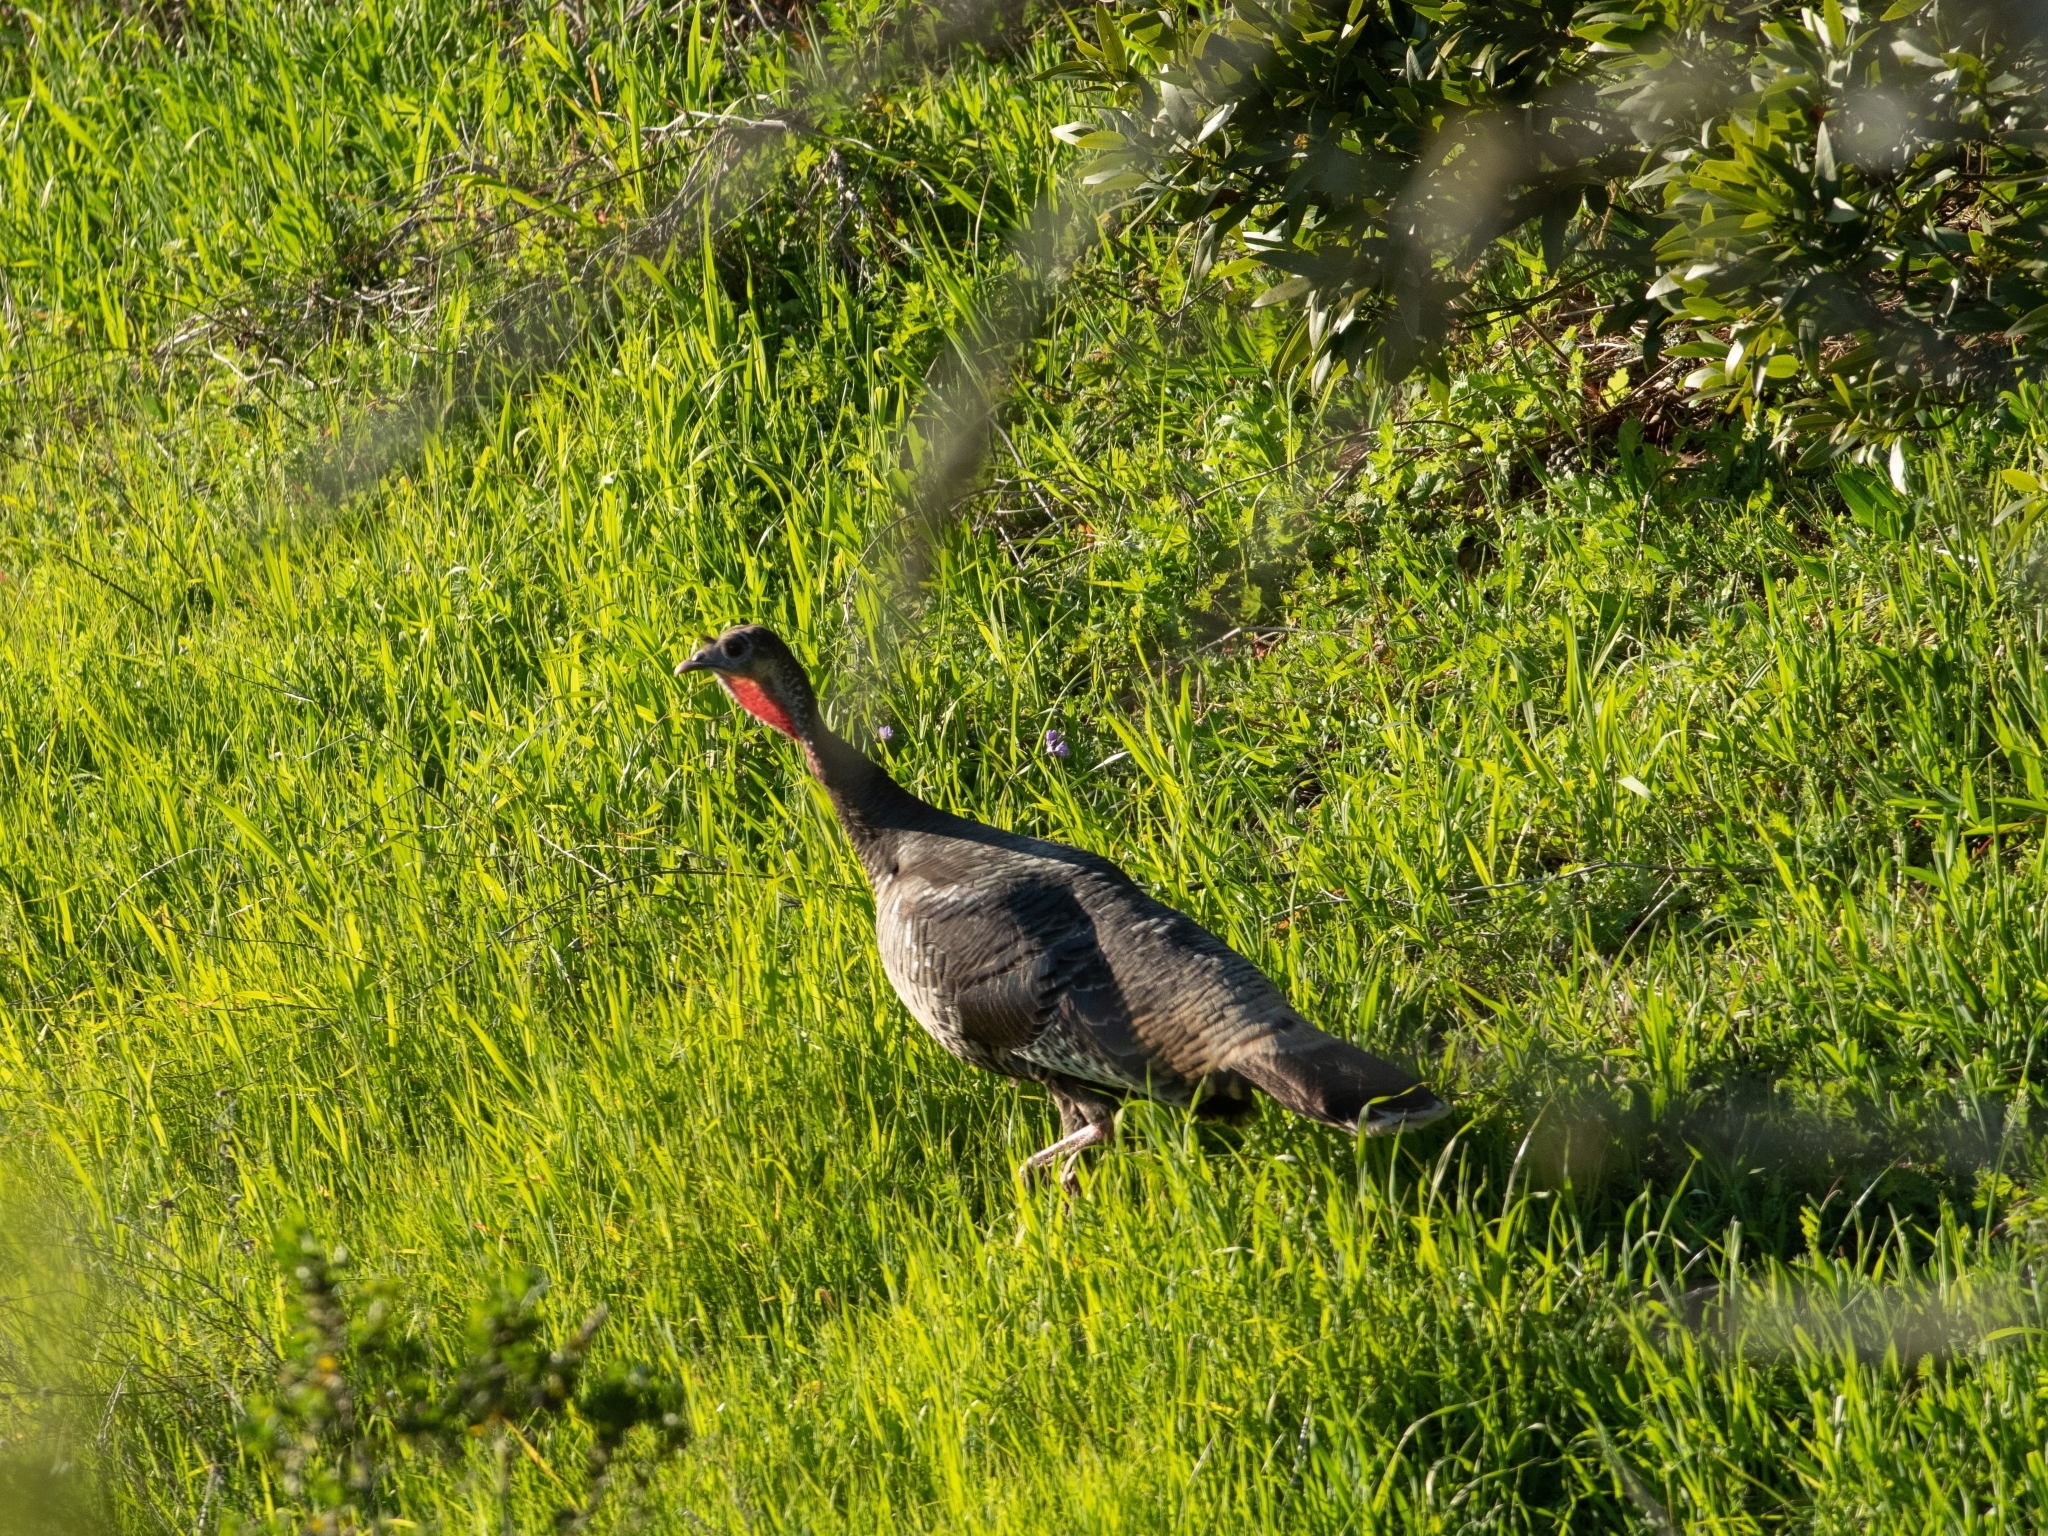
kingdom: Animalia
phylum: Chordata
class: Aves
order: Galliformes
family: Phasianidae
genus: Meleagris
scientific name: Meleagris gallopavo
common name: Wild turkey
